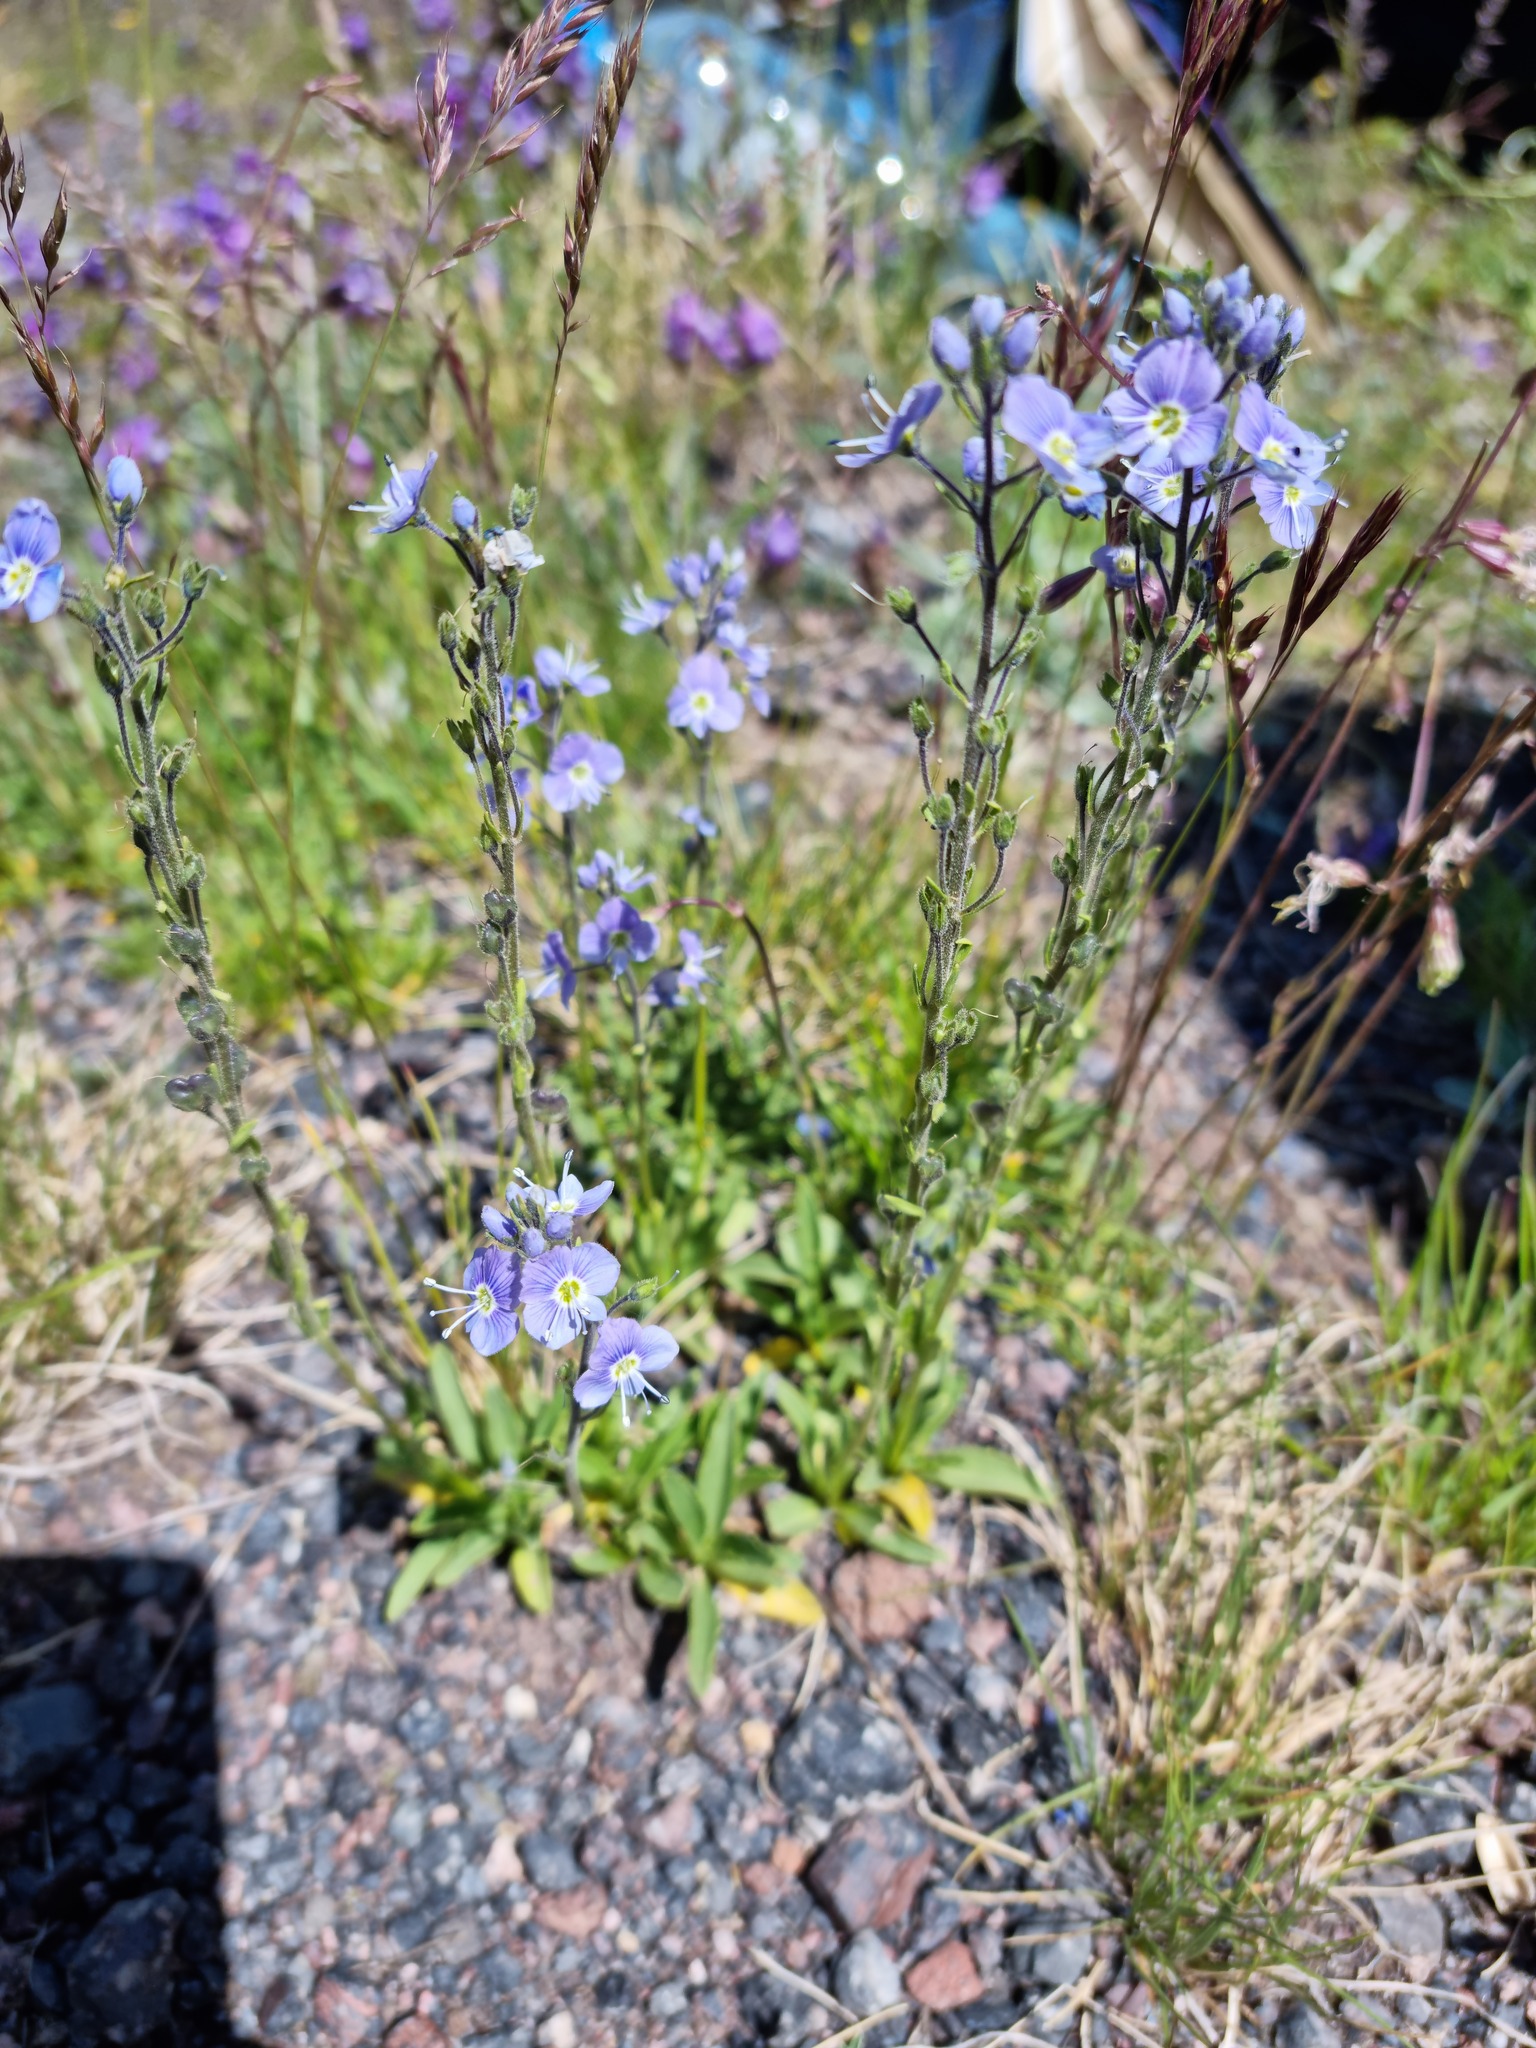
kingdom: Plantae
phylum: Tracheophyta
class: Magnoliopsida
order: Lamiales
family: Plantaginaceae
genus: Veronica
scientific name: Veronica gentianoides
